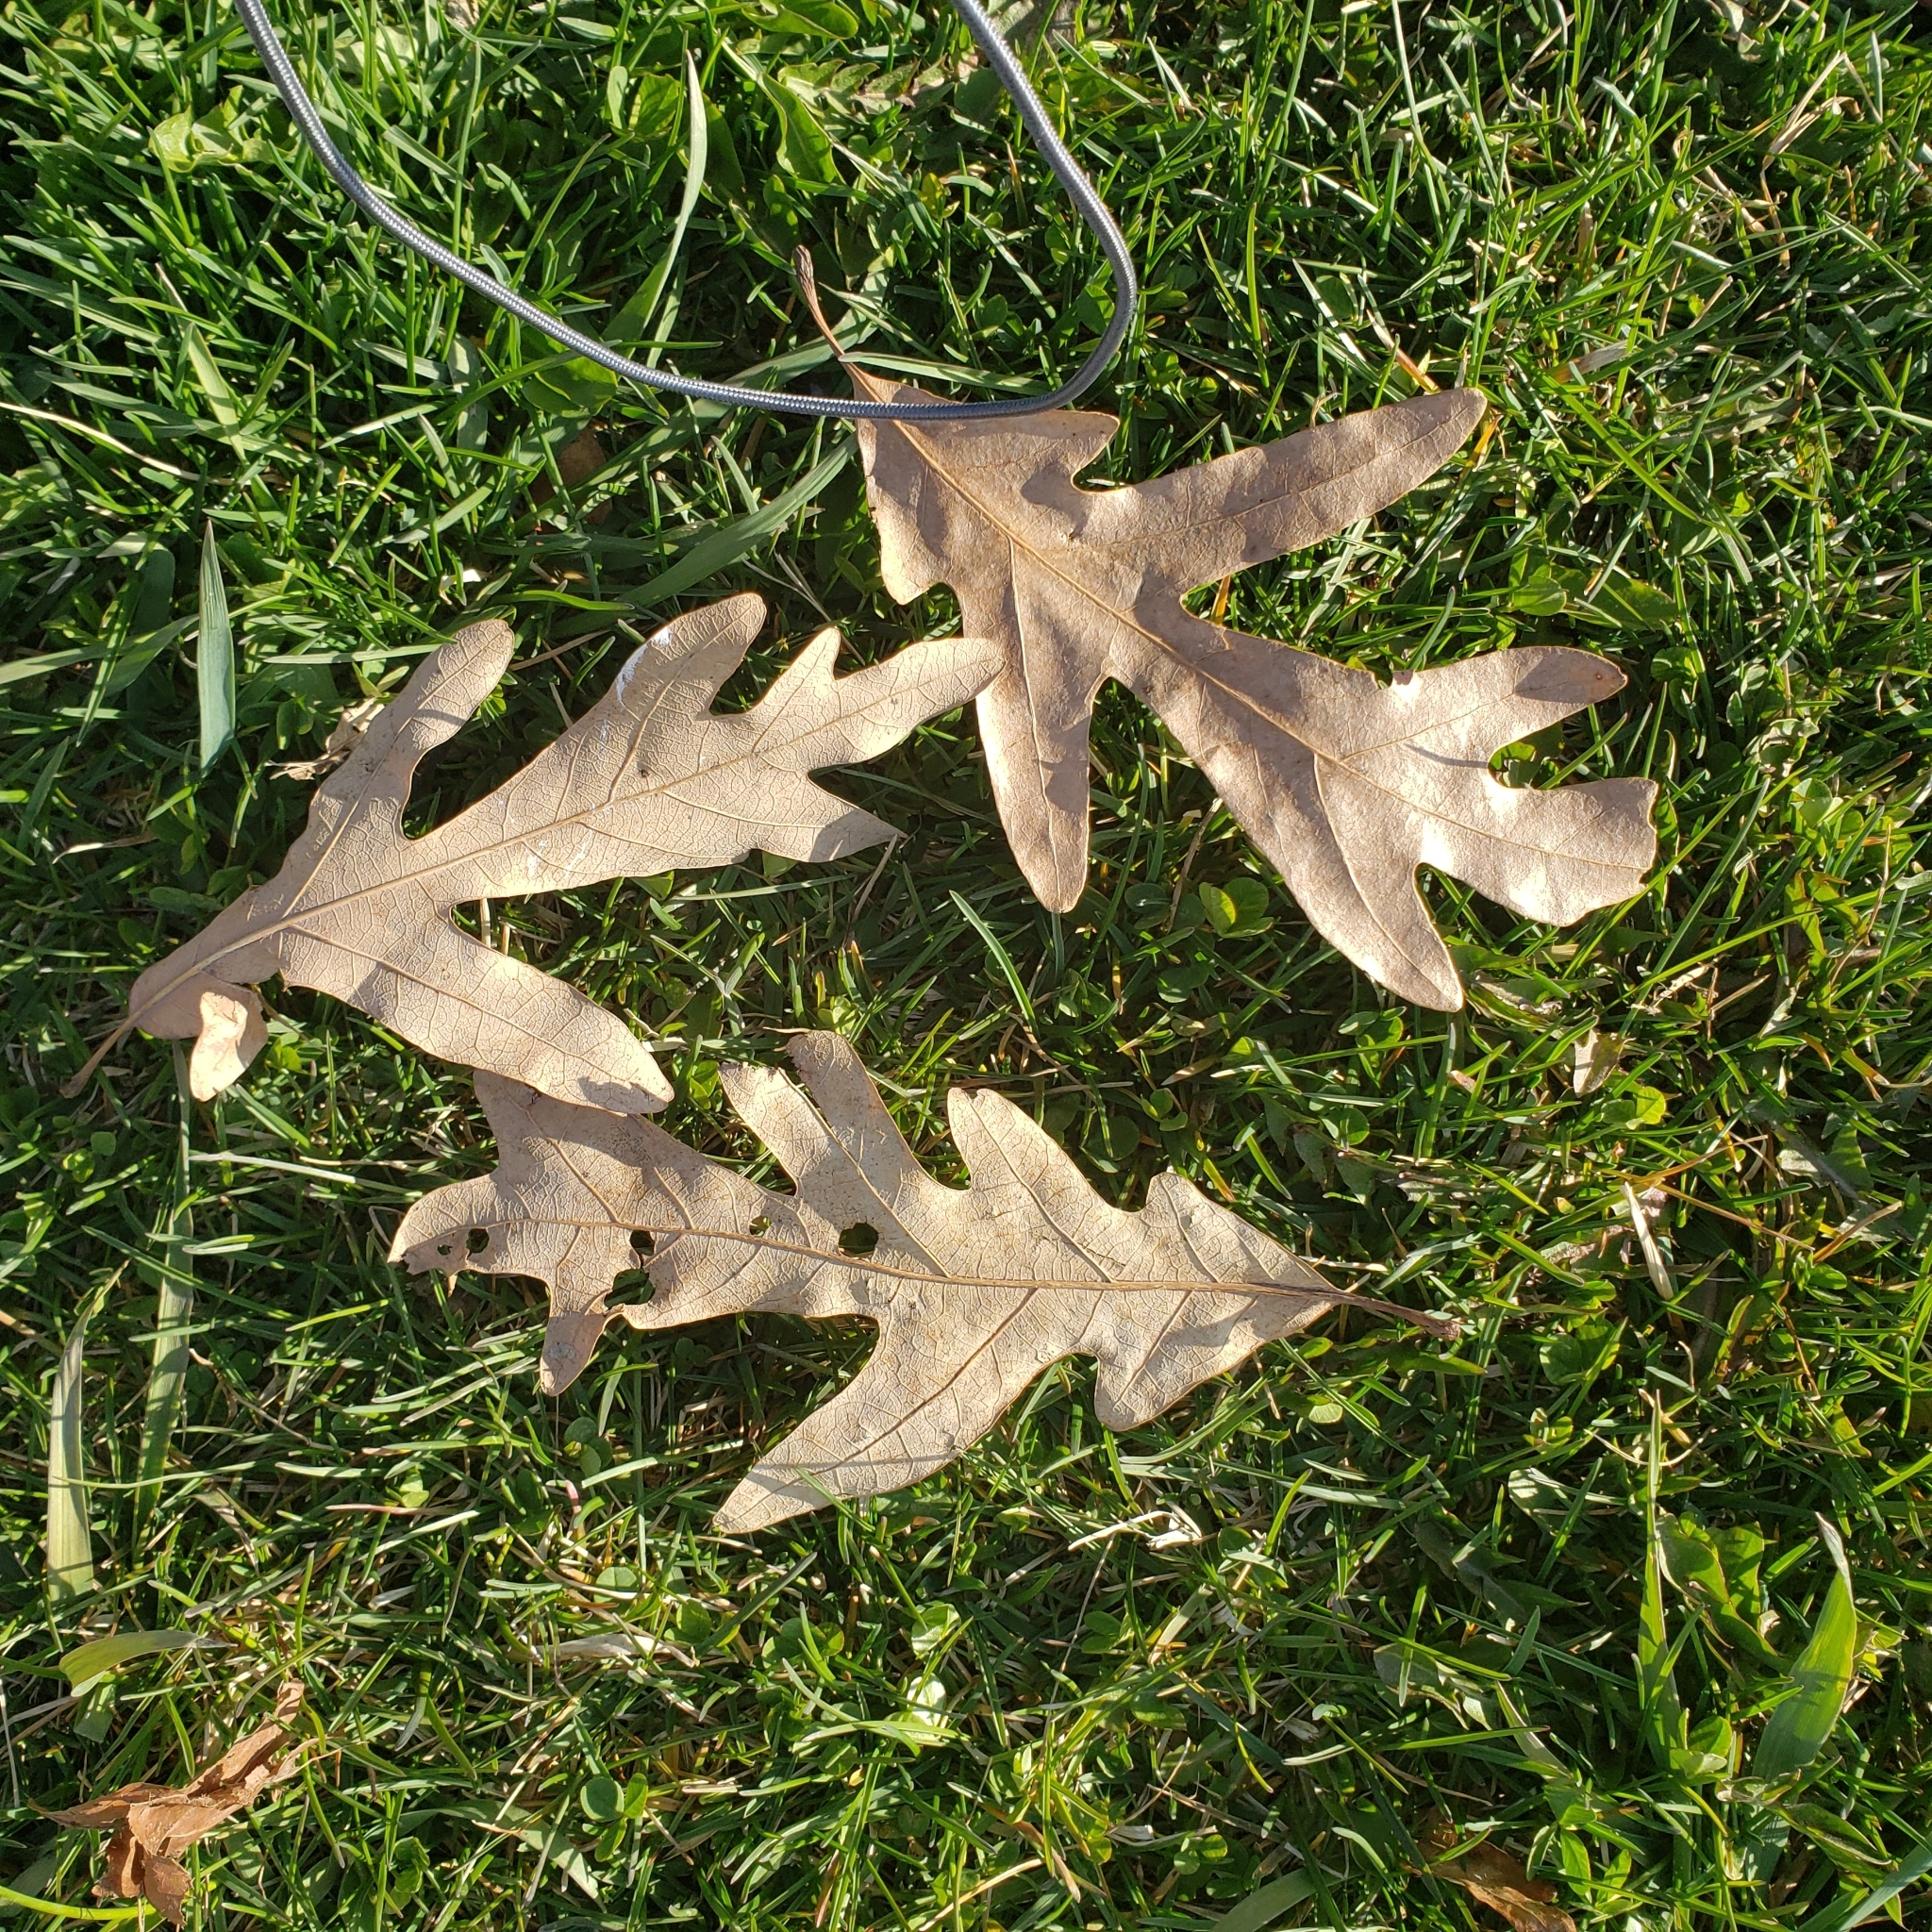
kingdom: Plantae
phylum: Tracheophyta
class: Magnoliopsida
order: Fagales
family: Fagaceae
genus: Quercus
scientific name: Quercus alba
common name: White oak
